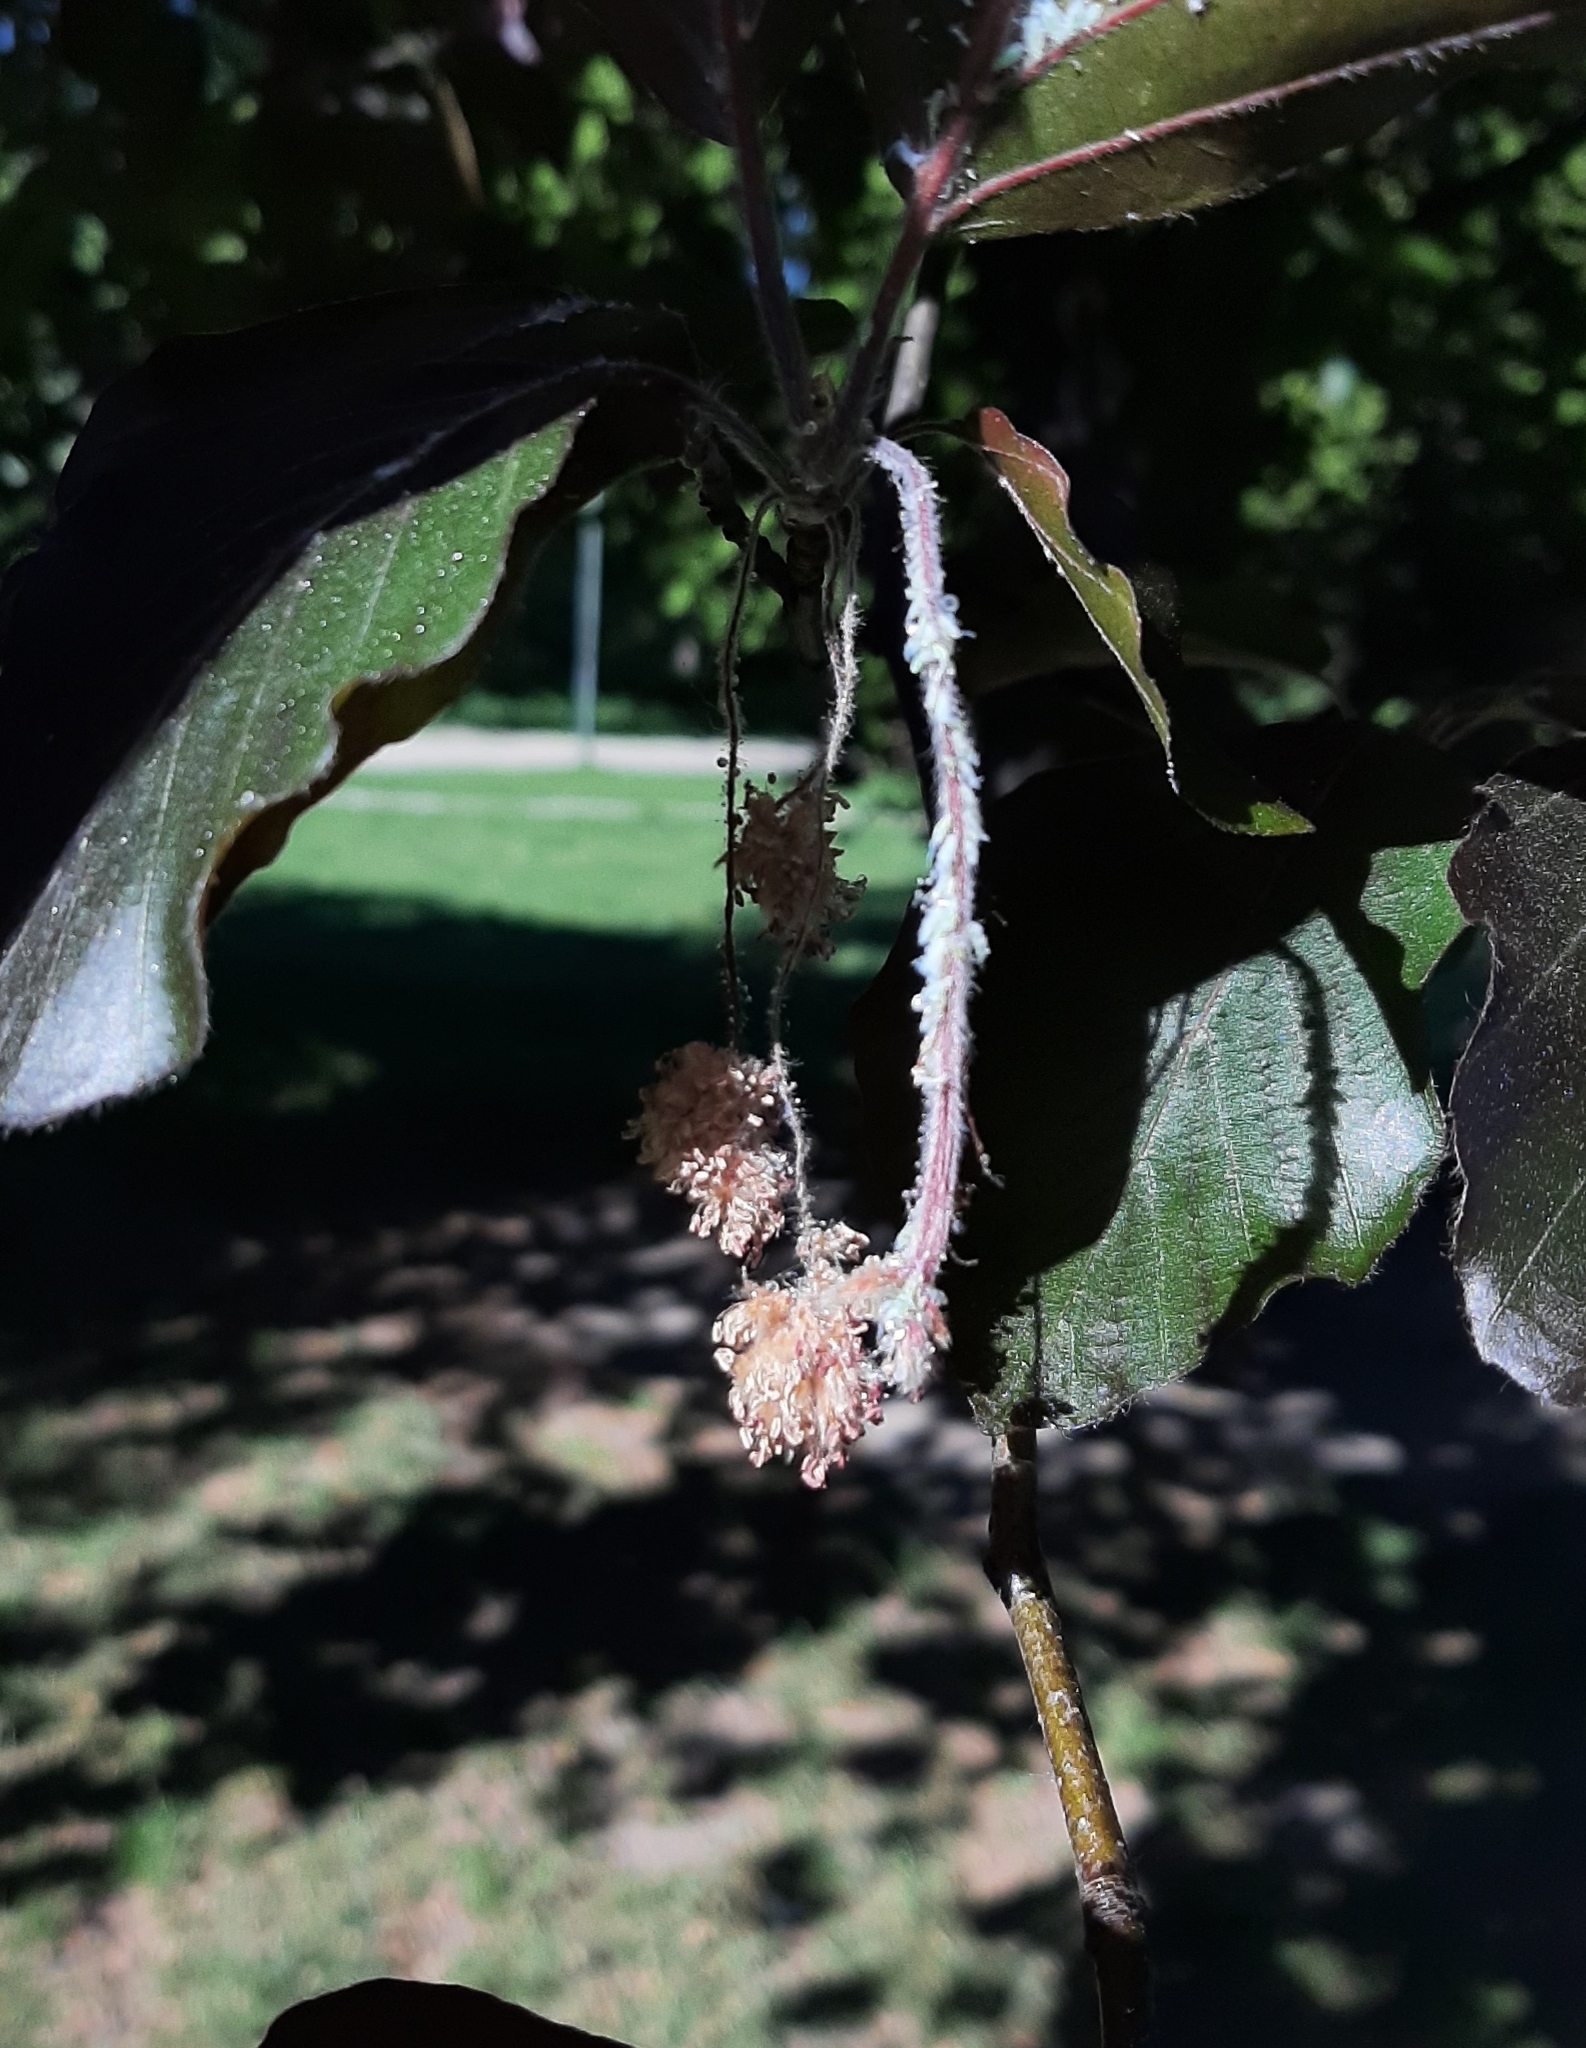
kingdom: Plantae
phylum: Tracheophyta
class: Magnoliopsida
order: Fagales
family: Fagaceae
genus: Fagus
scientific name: Fagus sylvatica
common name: Beech
